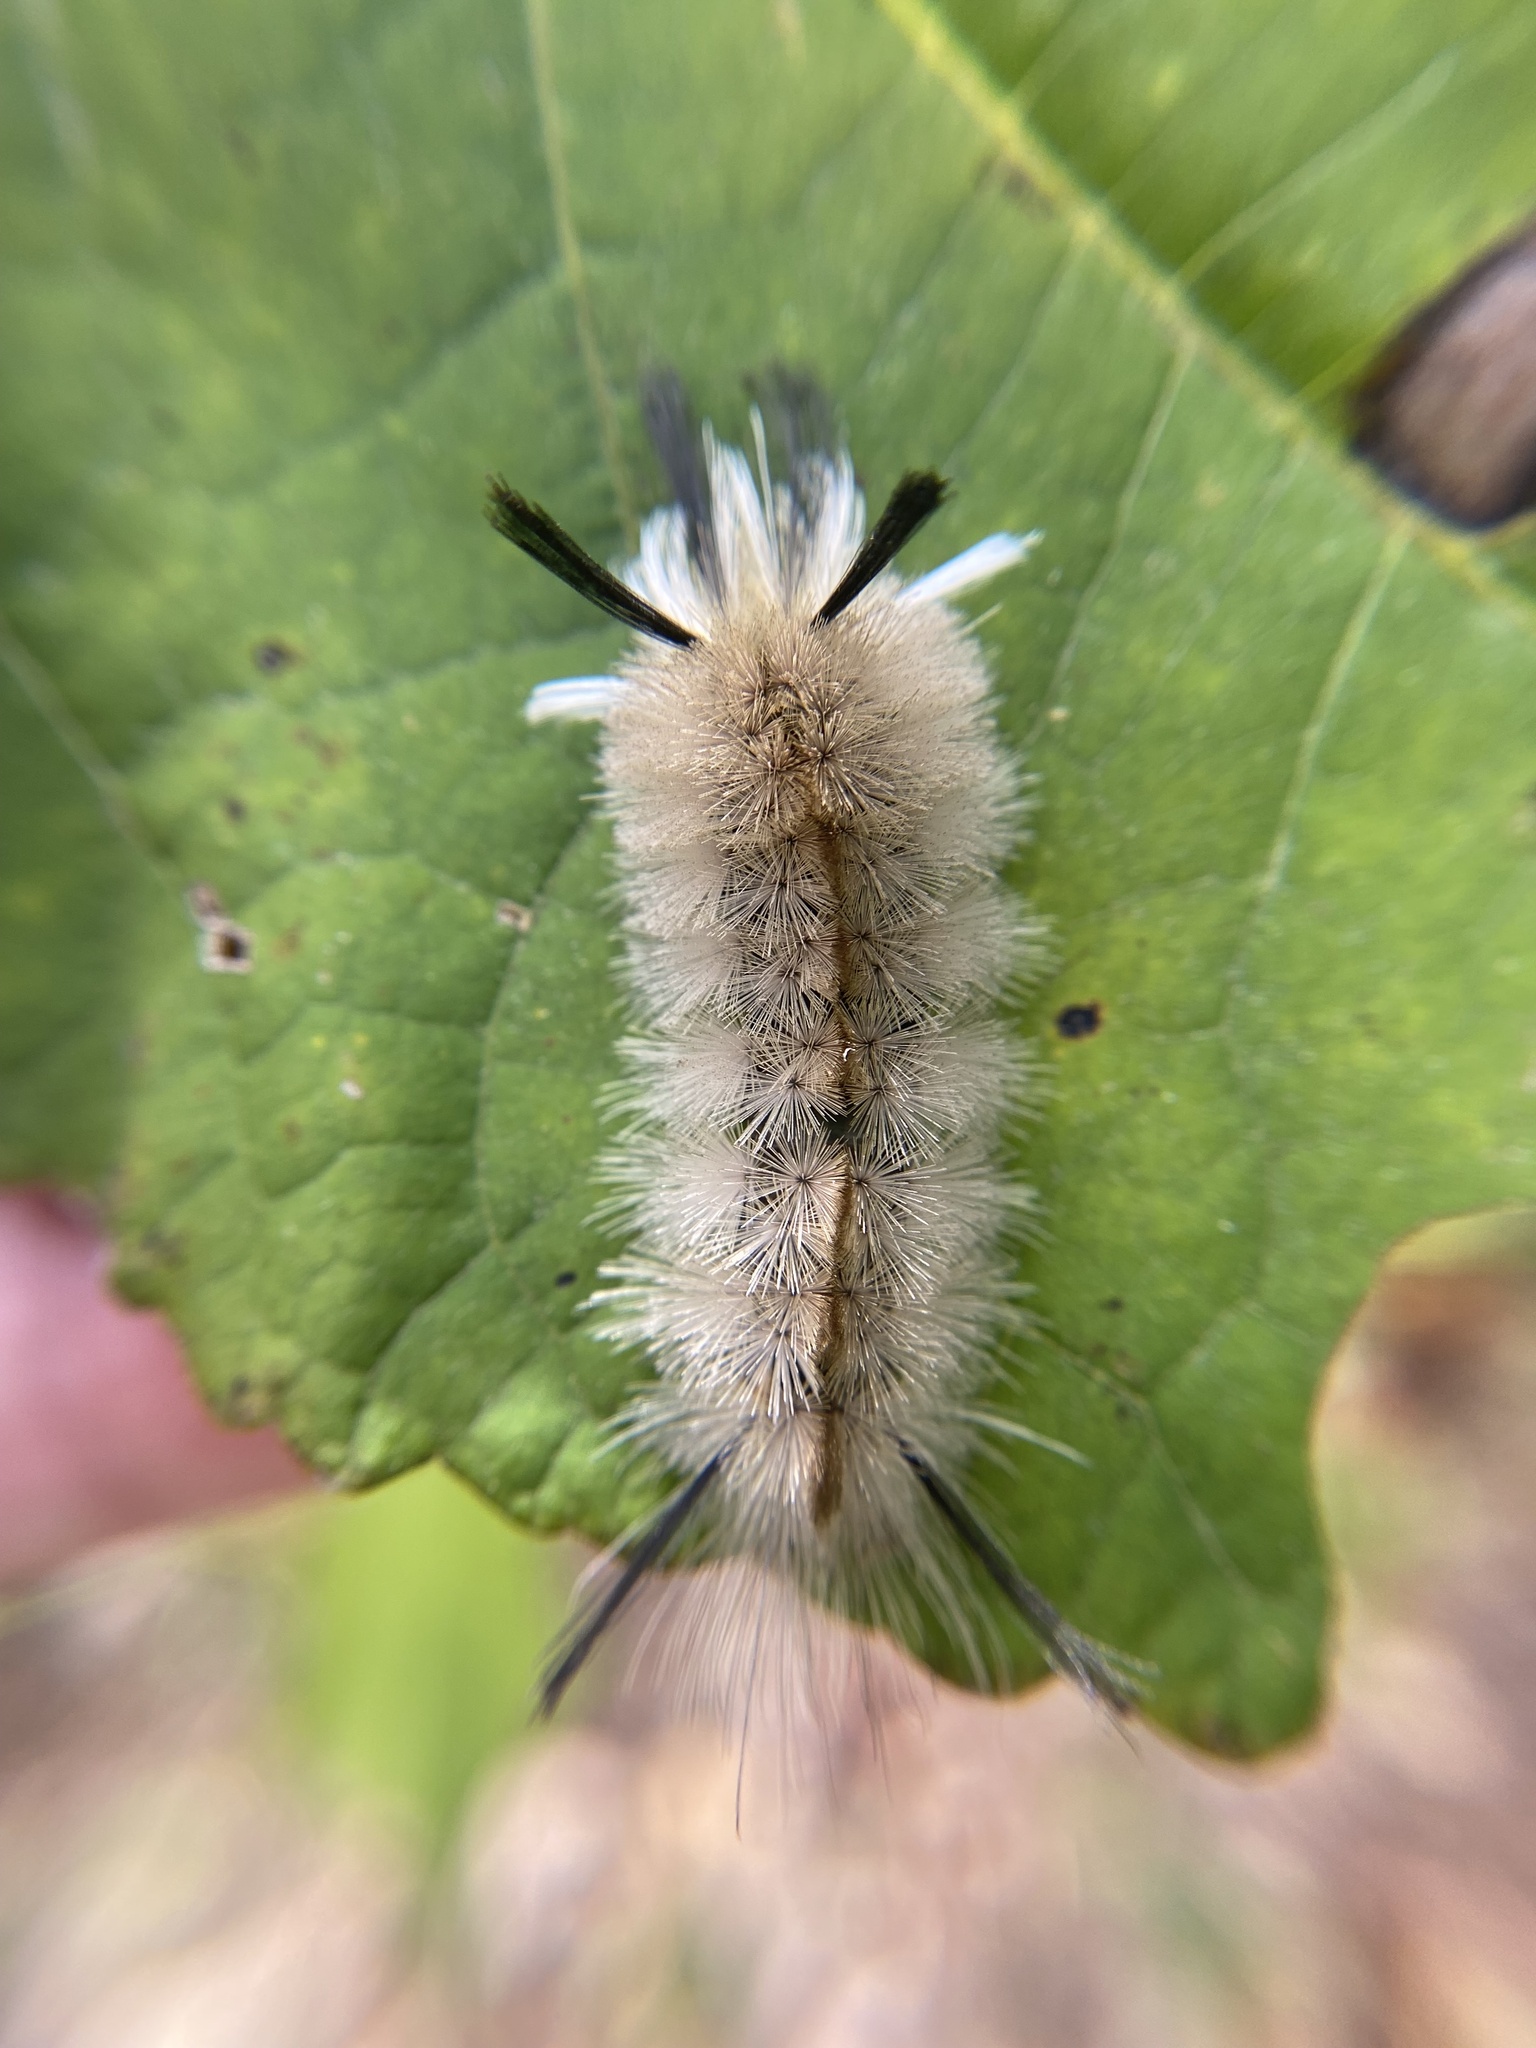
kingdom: Animalia
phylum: Arthropoda
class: Insecta
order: Lepidoptera
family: Erebidae
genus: Halysidota
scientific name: Halysidota tessellaris
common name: Banded tussock moth
